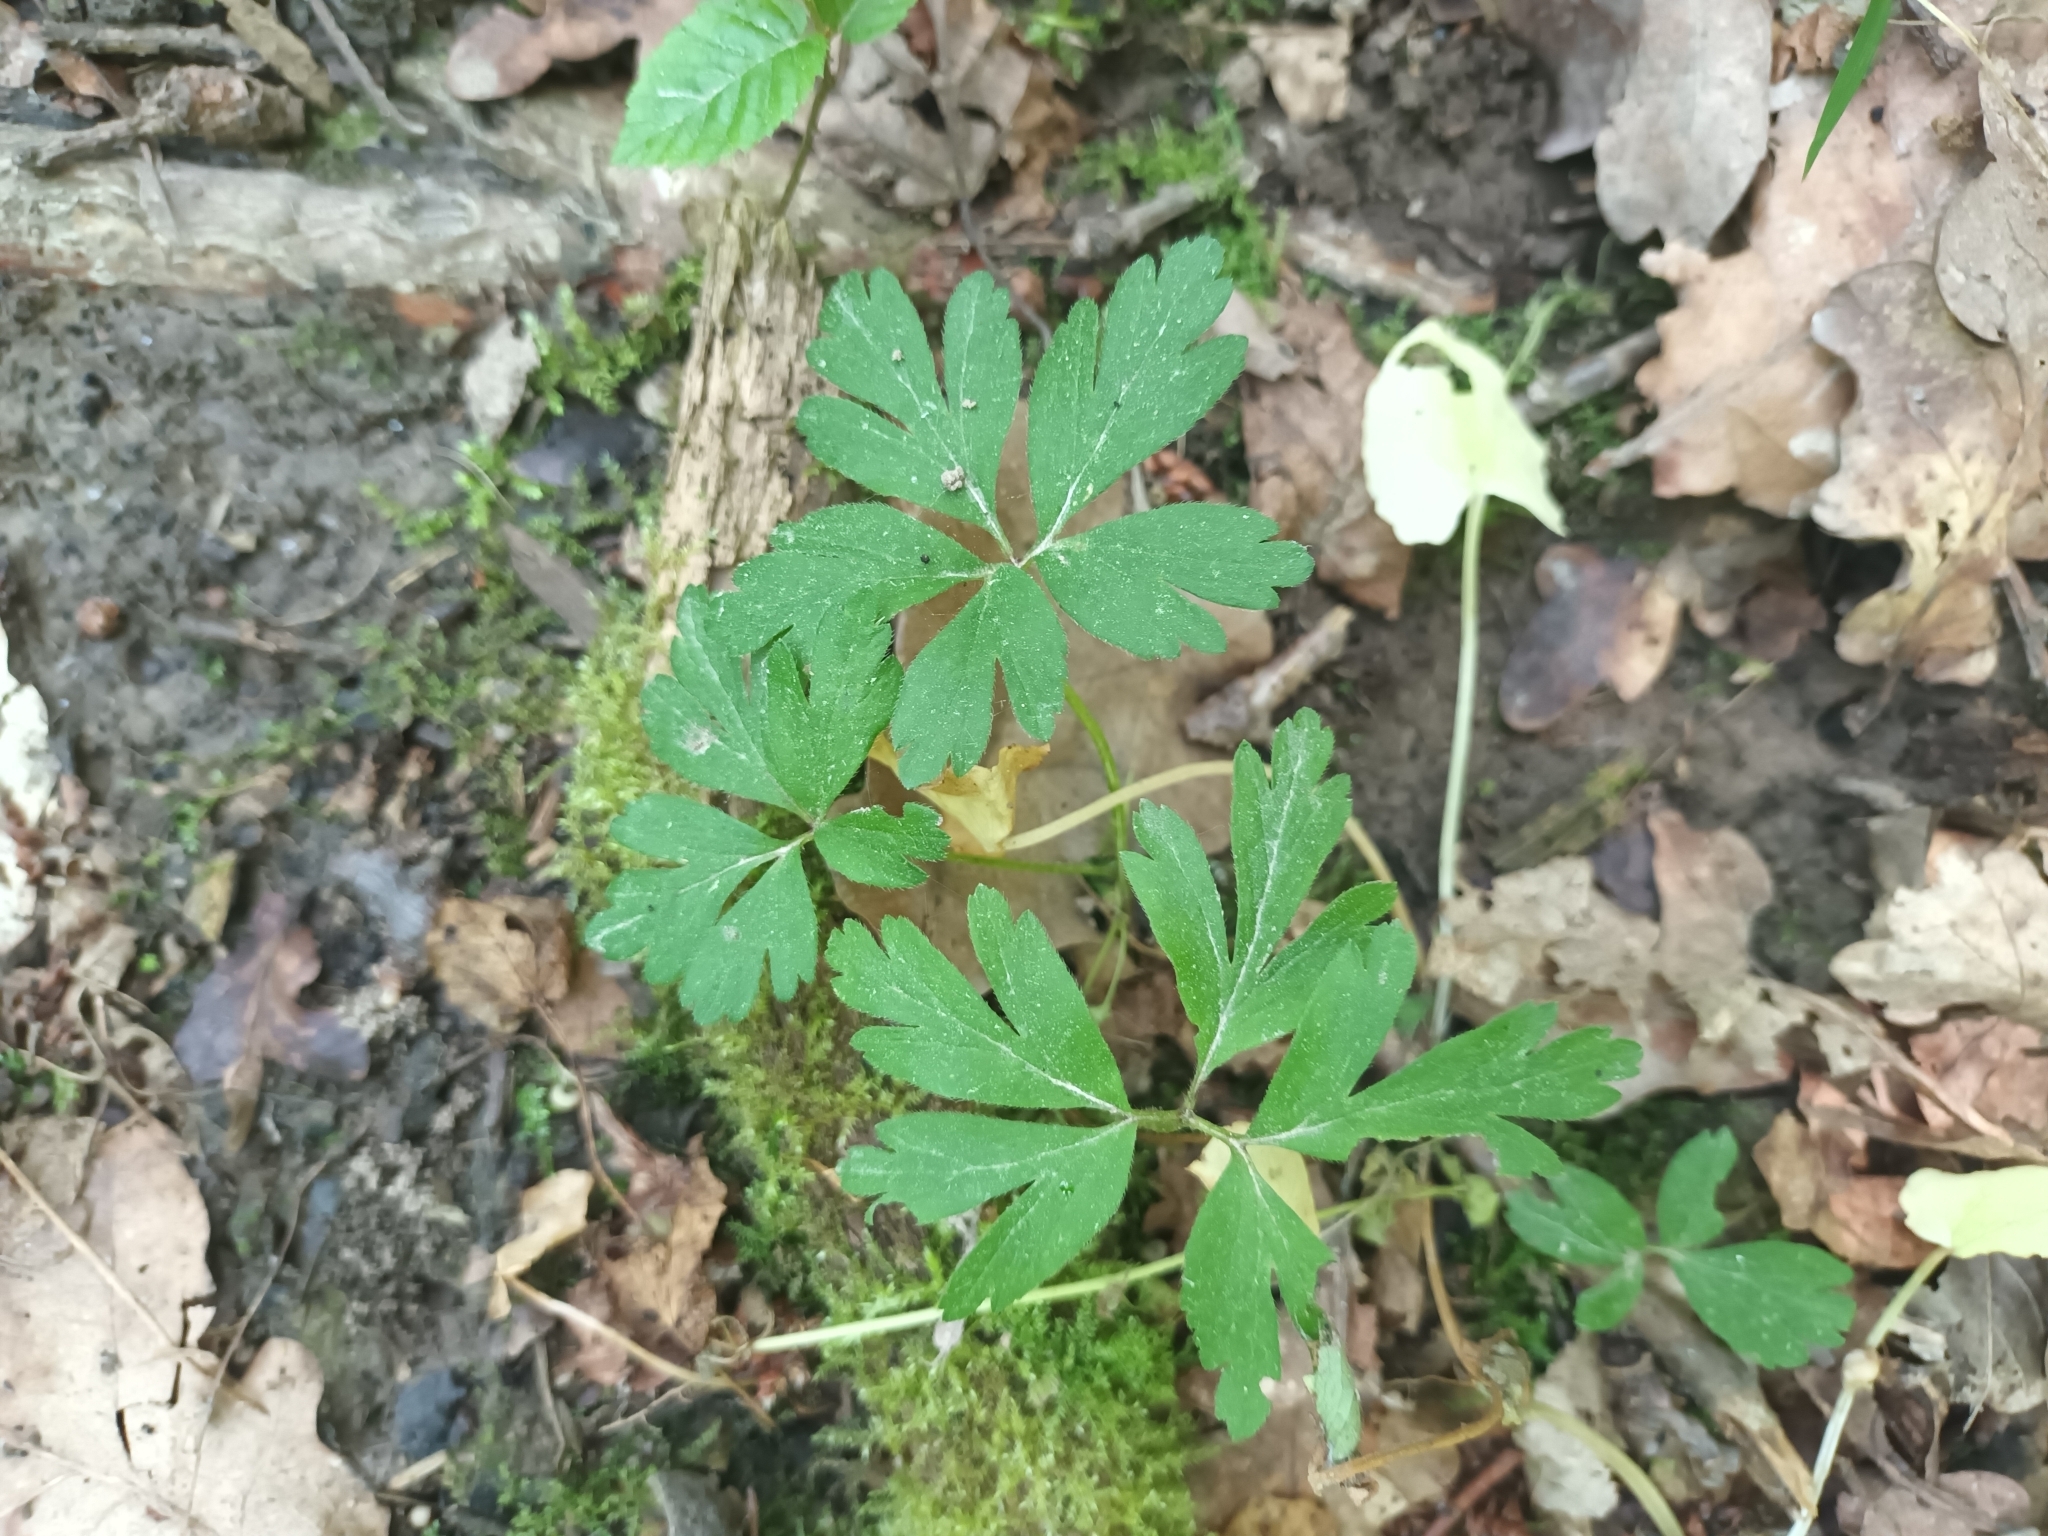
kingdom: Plantae
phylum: Tracheophyta
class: Magnoliopsida
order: Ranunculales
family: Ranunculaceae
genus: Anemone
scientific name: Anemone nemorosa
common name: Wood anemone
